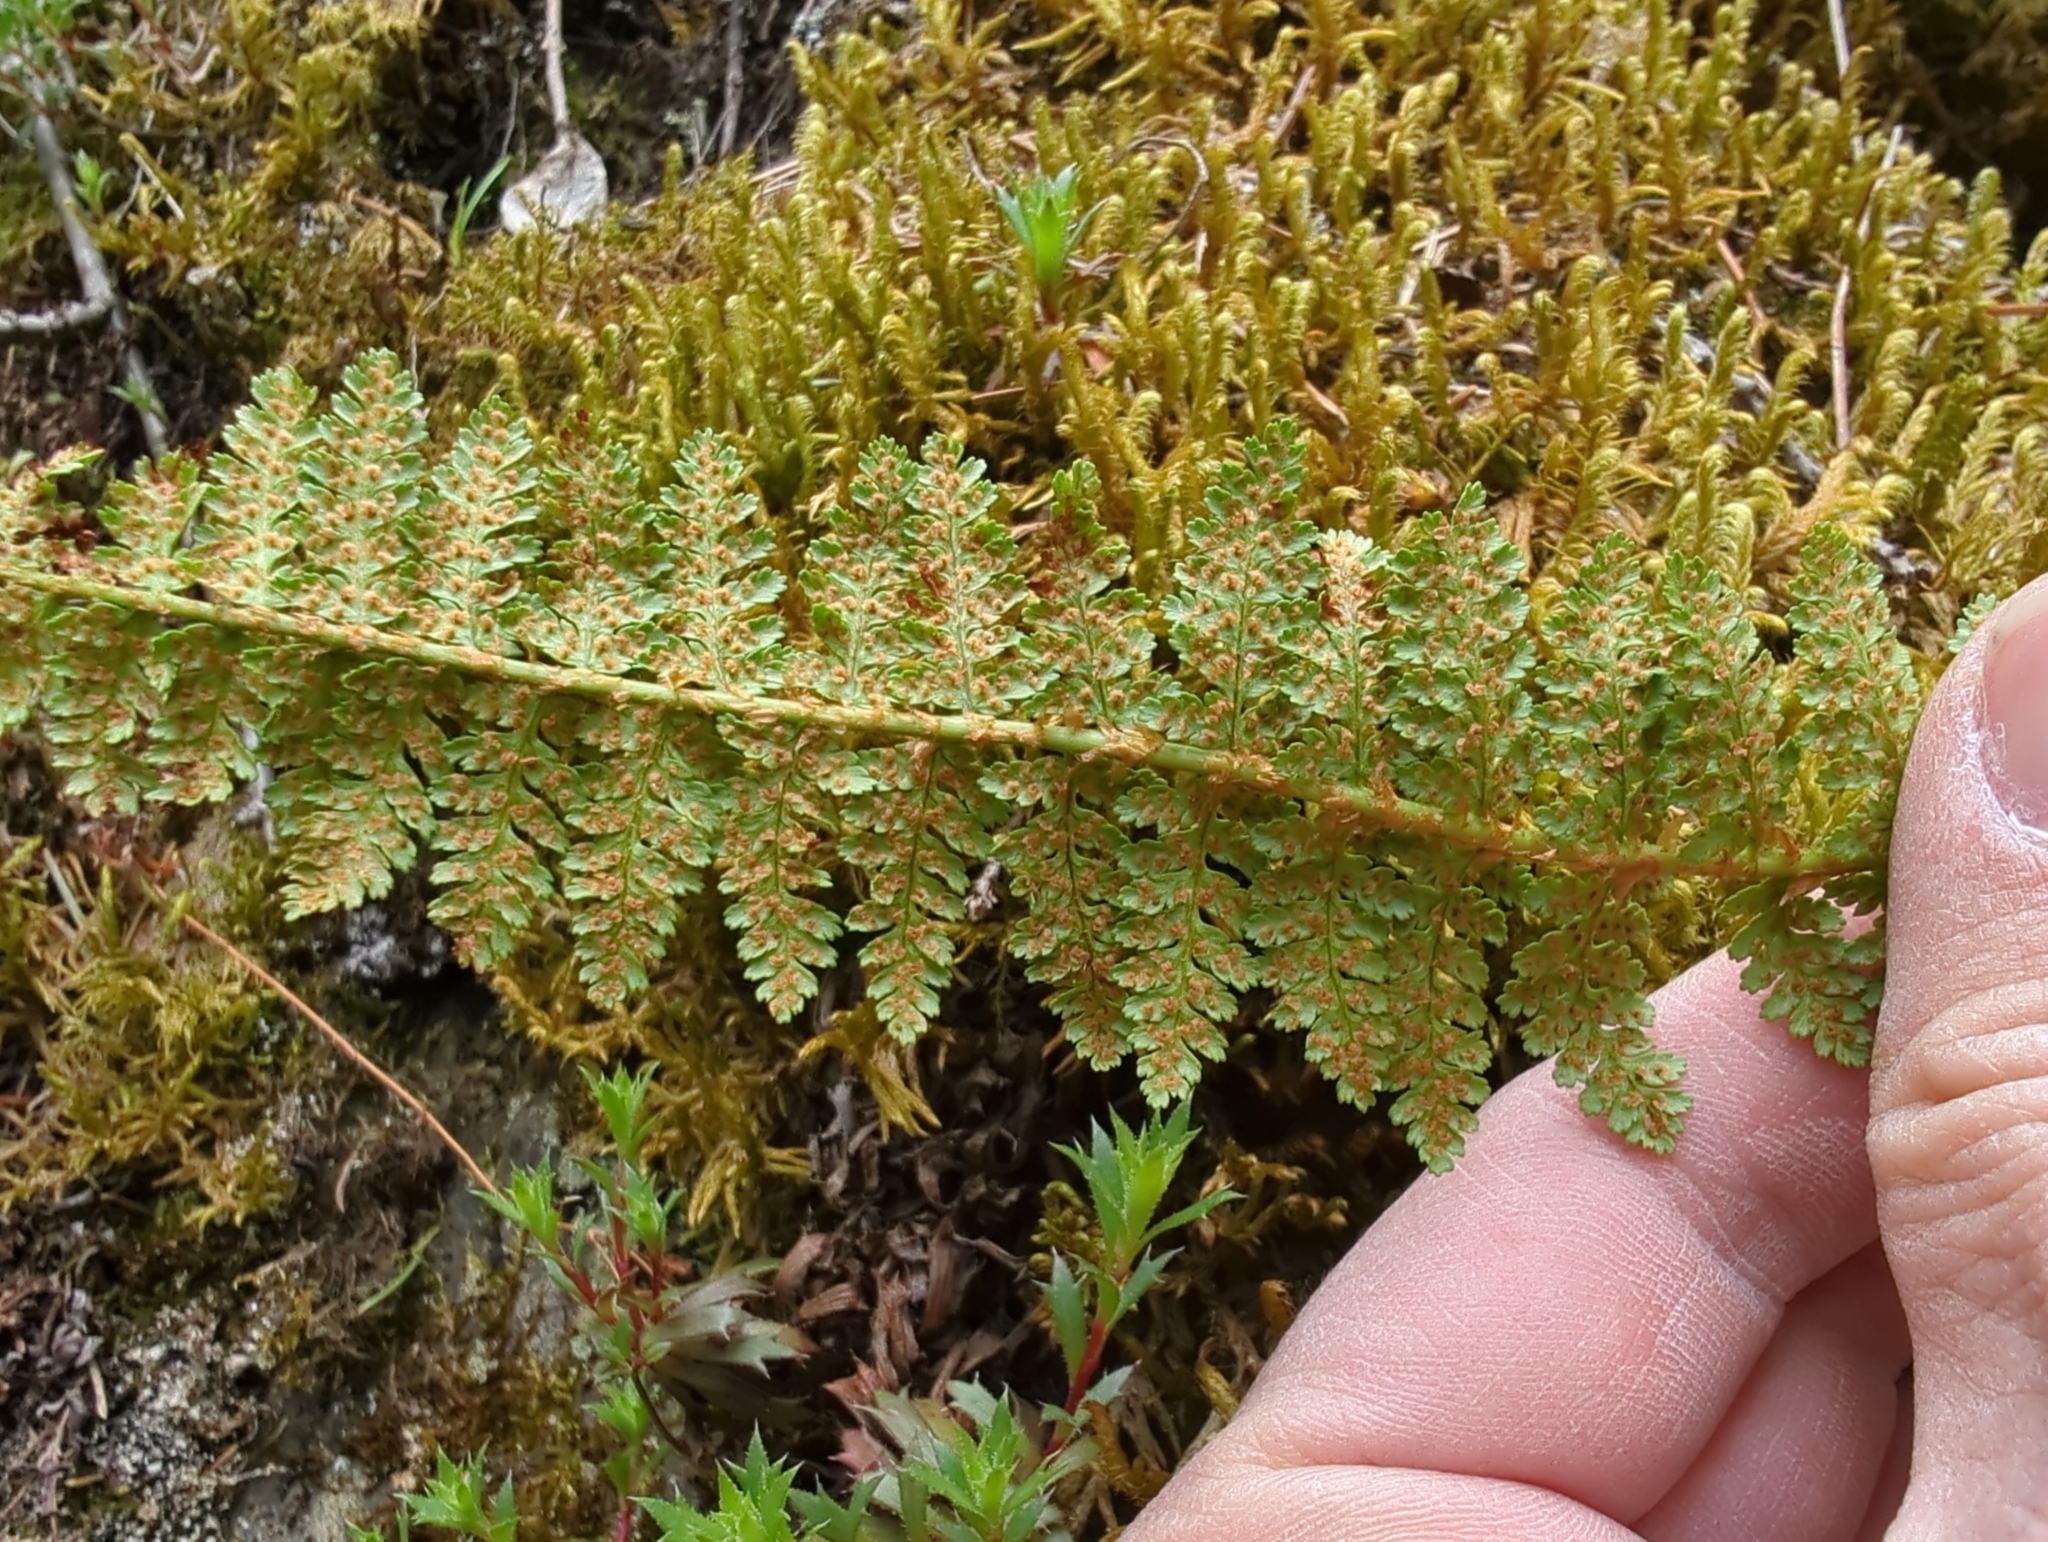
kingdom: Plantae
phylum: Tracheophyta
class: Polypodiopsida
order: Polypodiales
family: Dryopteridaceae
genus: Dryopteris
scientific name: Dryopteris fragrans
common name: Fragrant wood fern
